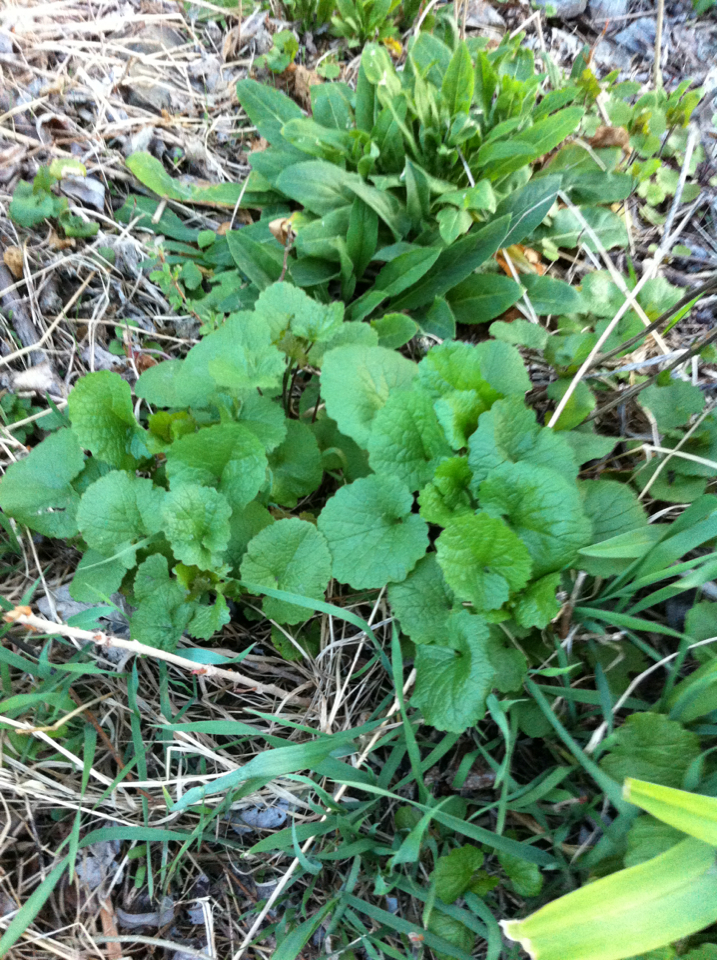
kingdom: Plantae
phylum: Tracheophyta
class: Magnoliopsida
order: Brassicales
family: Brassicaceae
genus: Alliaria
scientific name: Alliaria petiolata
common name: Garlic mustard
